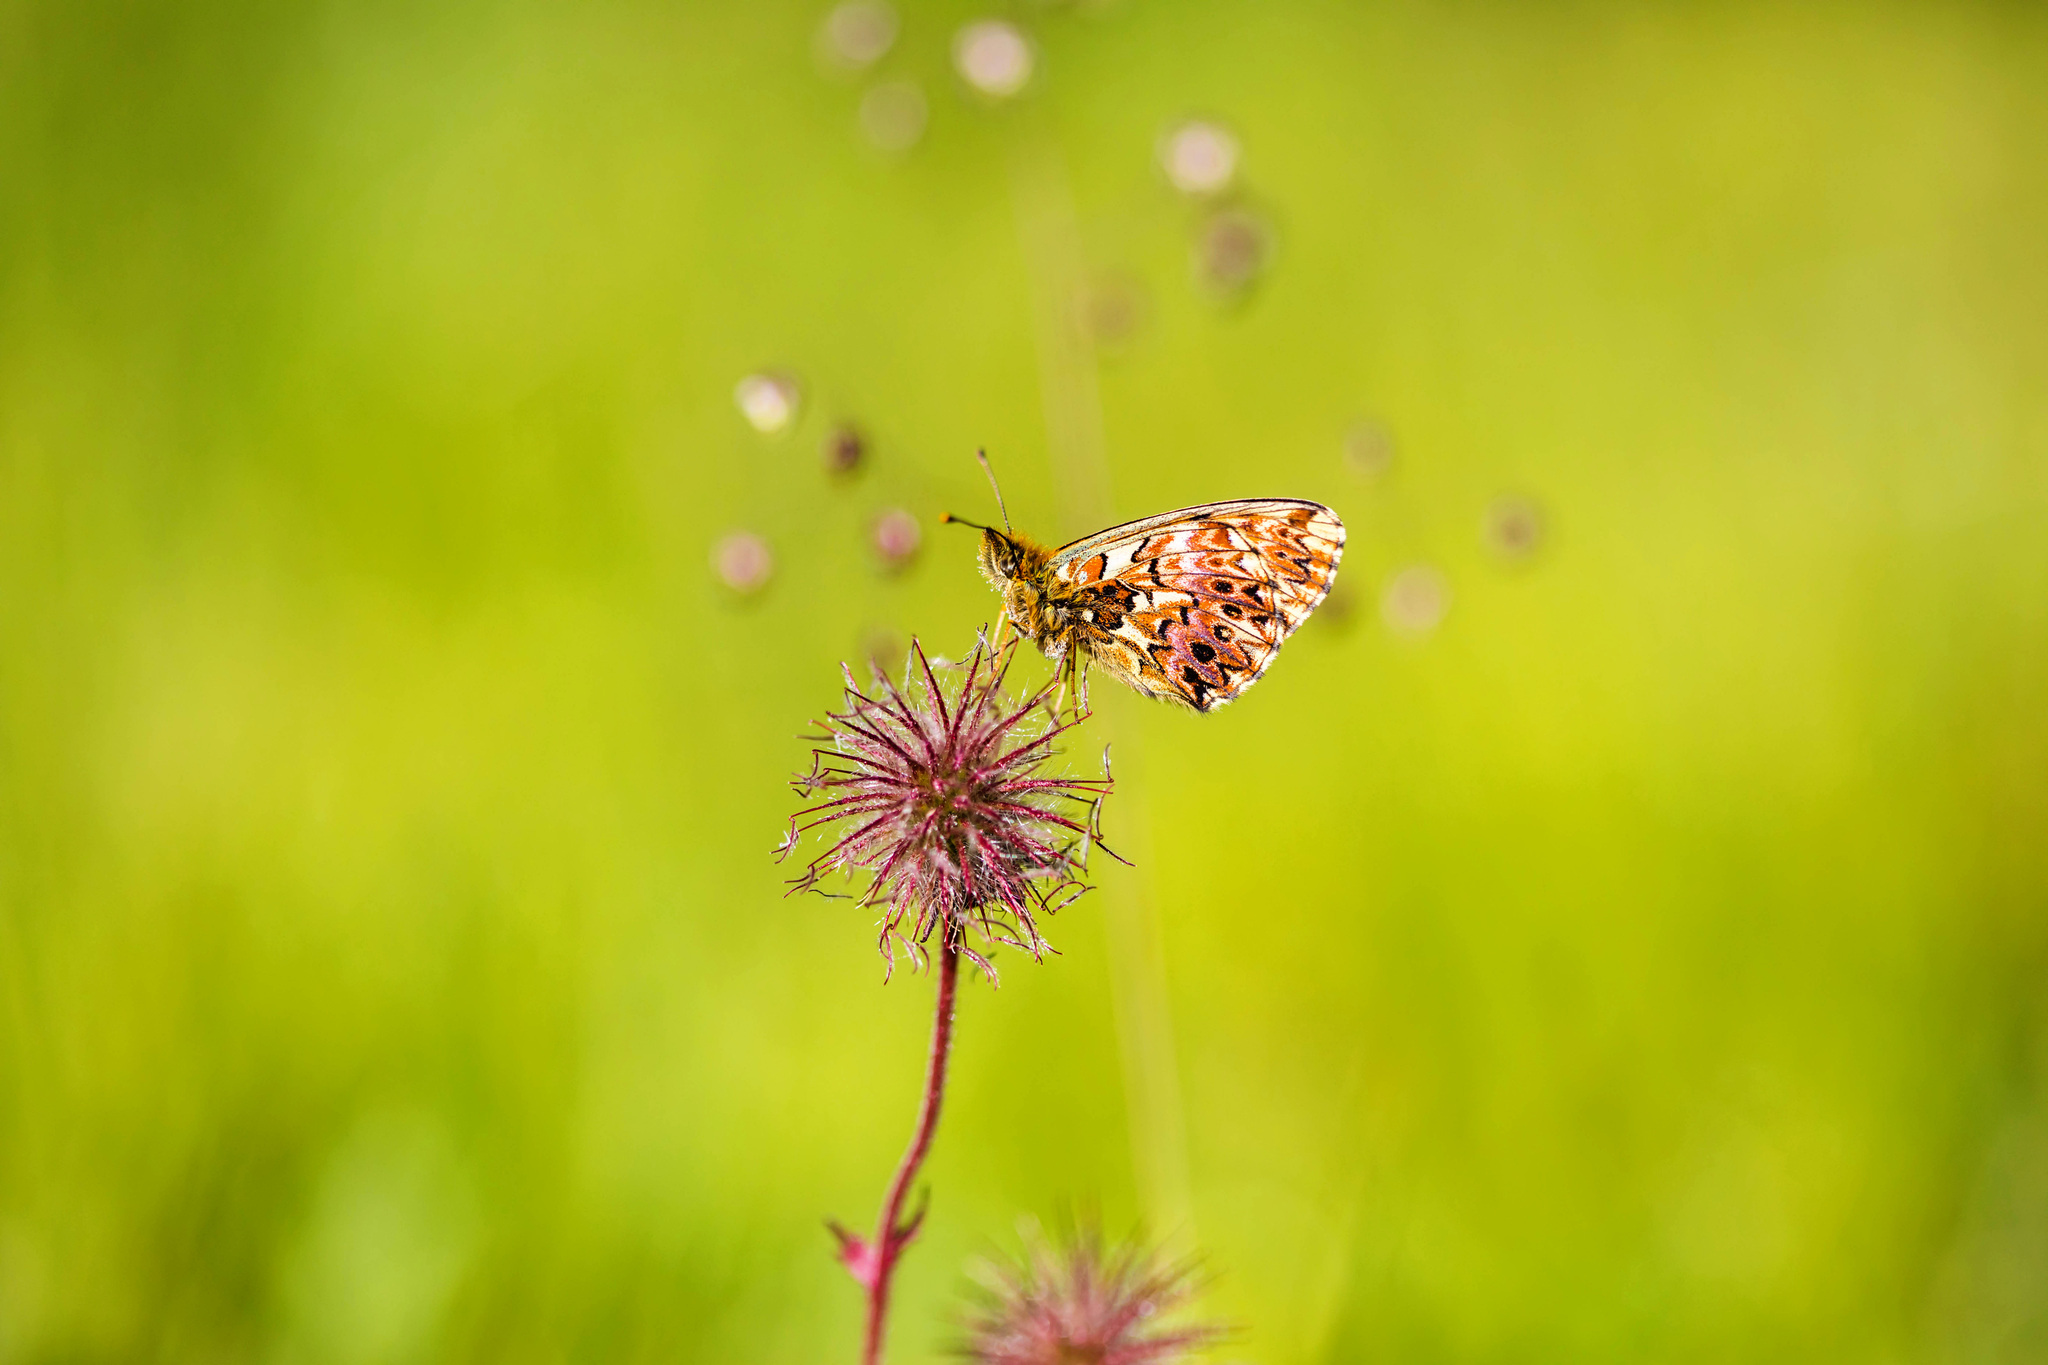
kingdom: Animalia
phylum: Arthropoda
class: Insecta
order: Lepidoptera
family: Nymphalidae
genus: Boloria
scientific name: Boloria titania
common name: Titania's fritillary
